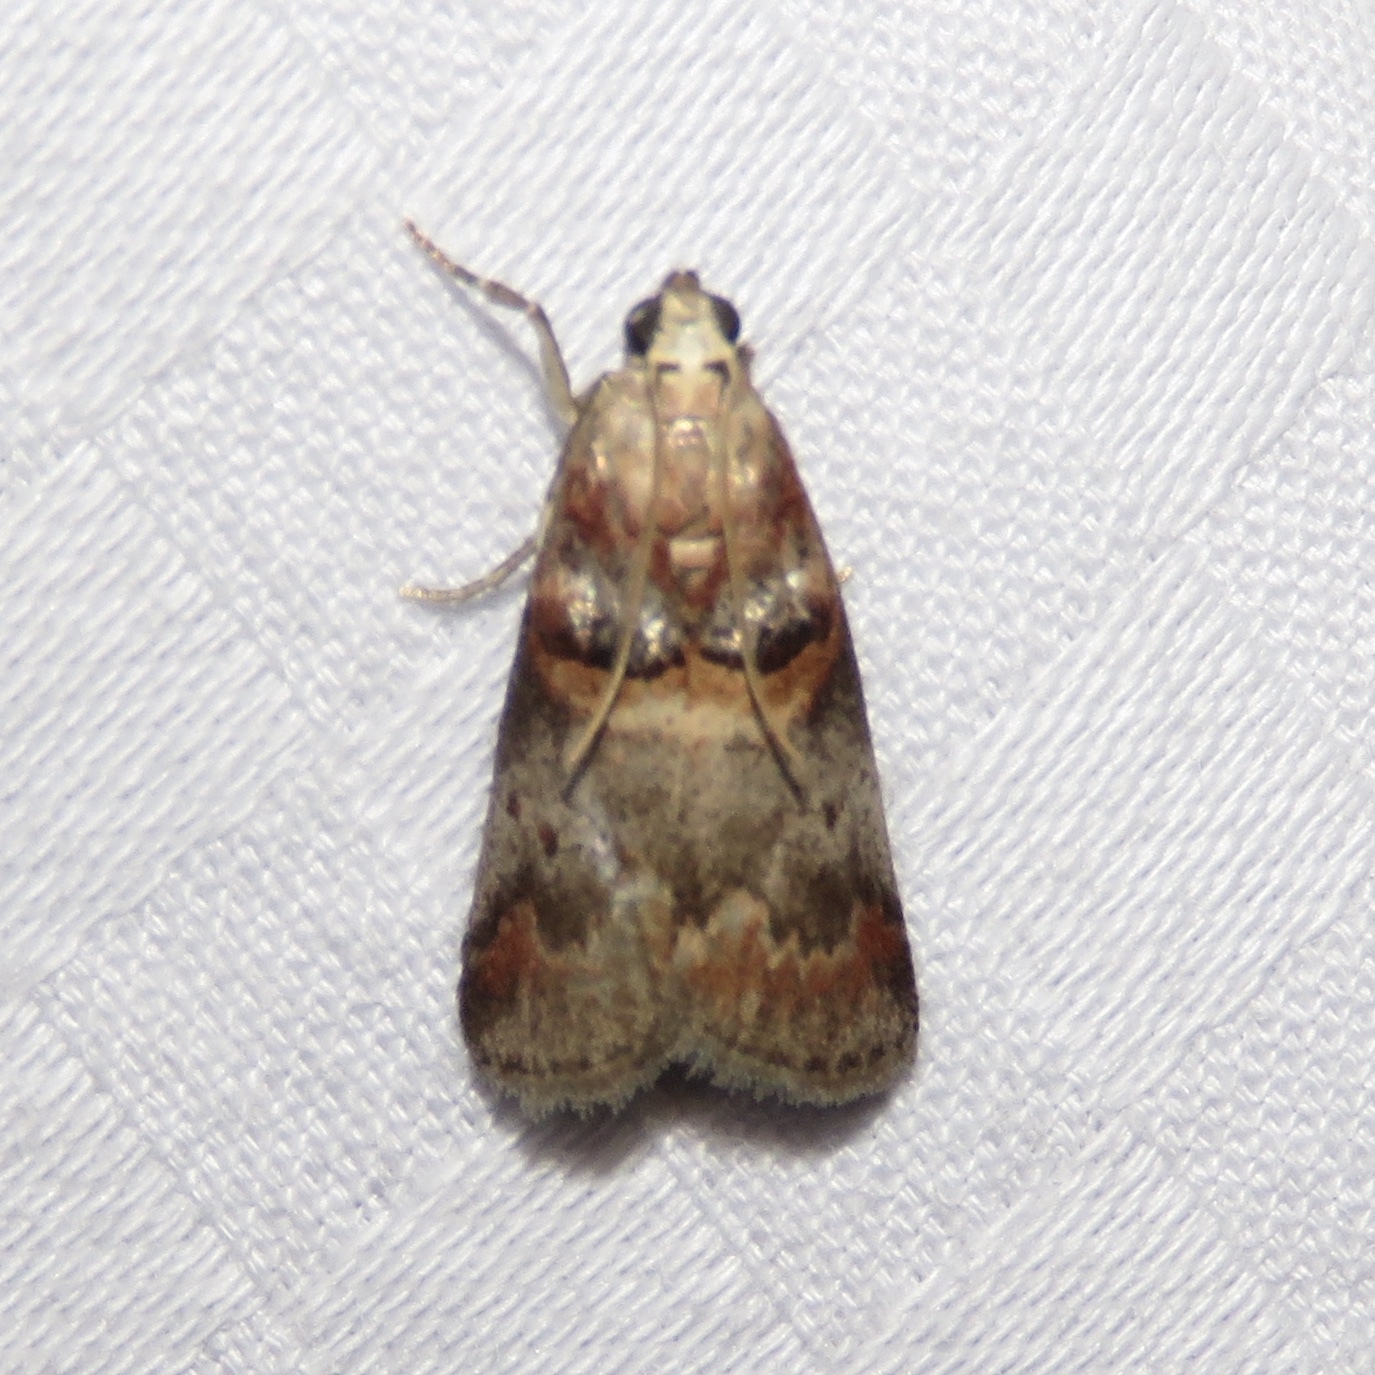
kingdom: Animalia
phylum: Arthropoda
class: Insecta
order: Lepidoptera
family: Pyralidae
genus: Acrobasis
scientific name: Acrobasis angusella
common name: Hickory leafstem borer moth
